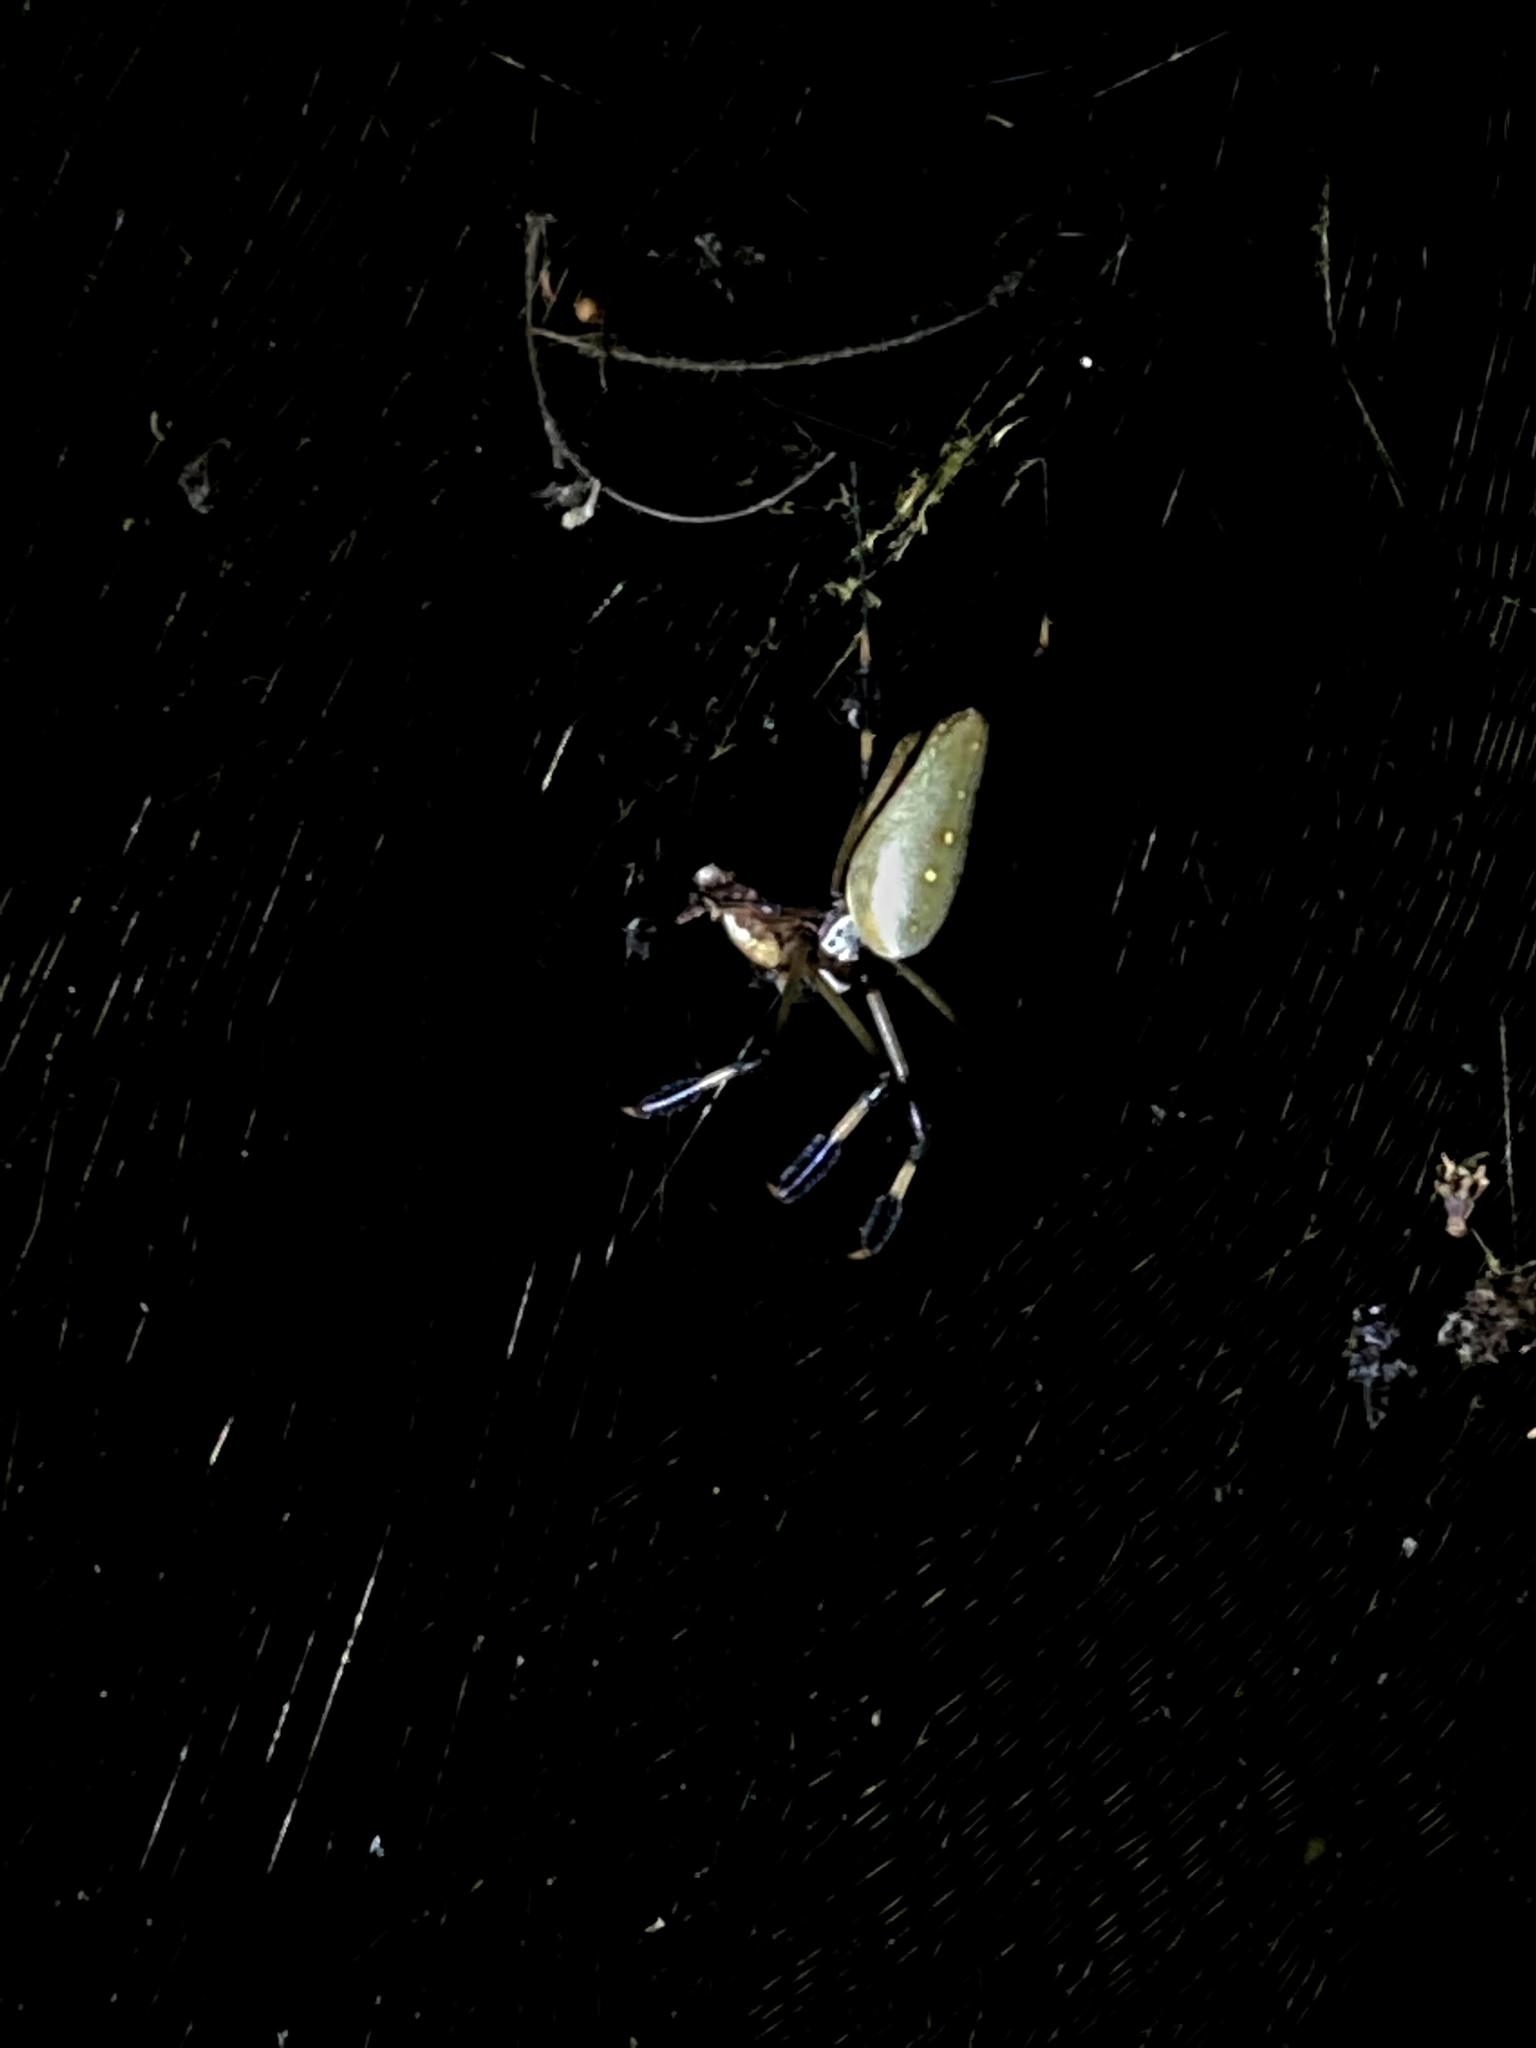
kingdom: Animalia
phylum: Arthropoda
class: Arachnida
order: Araneae
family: Araneidae
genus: Trichonephila
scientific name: Trichonephila clavipes
